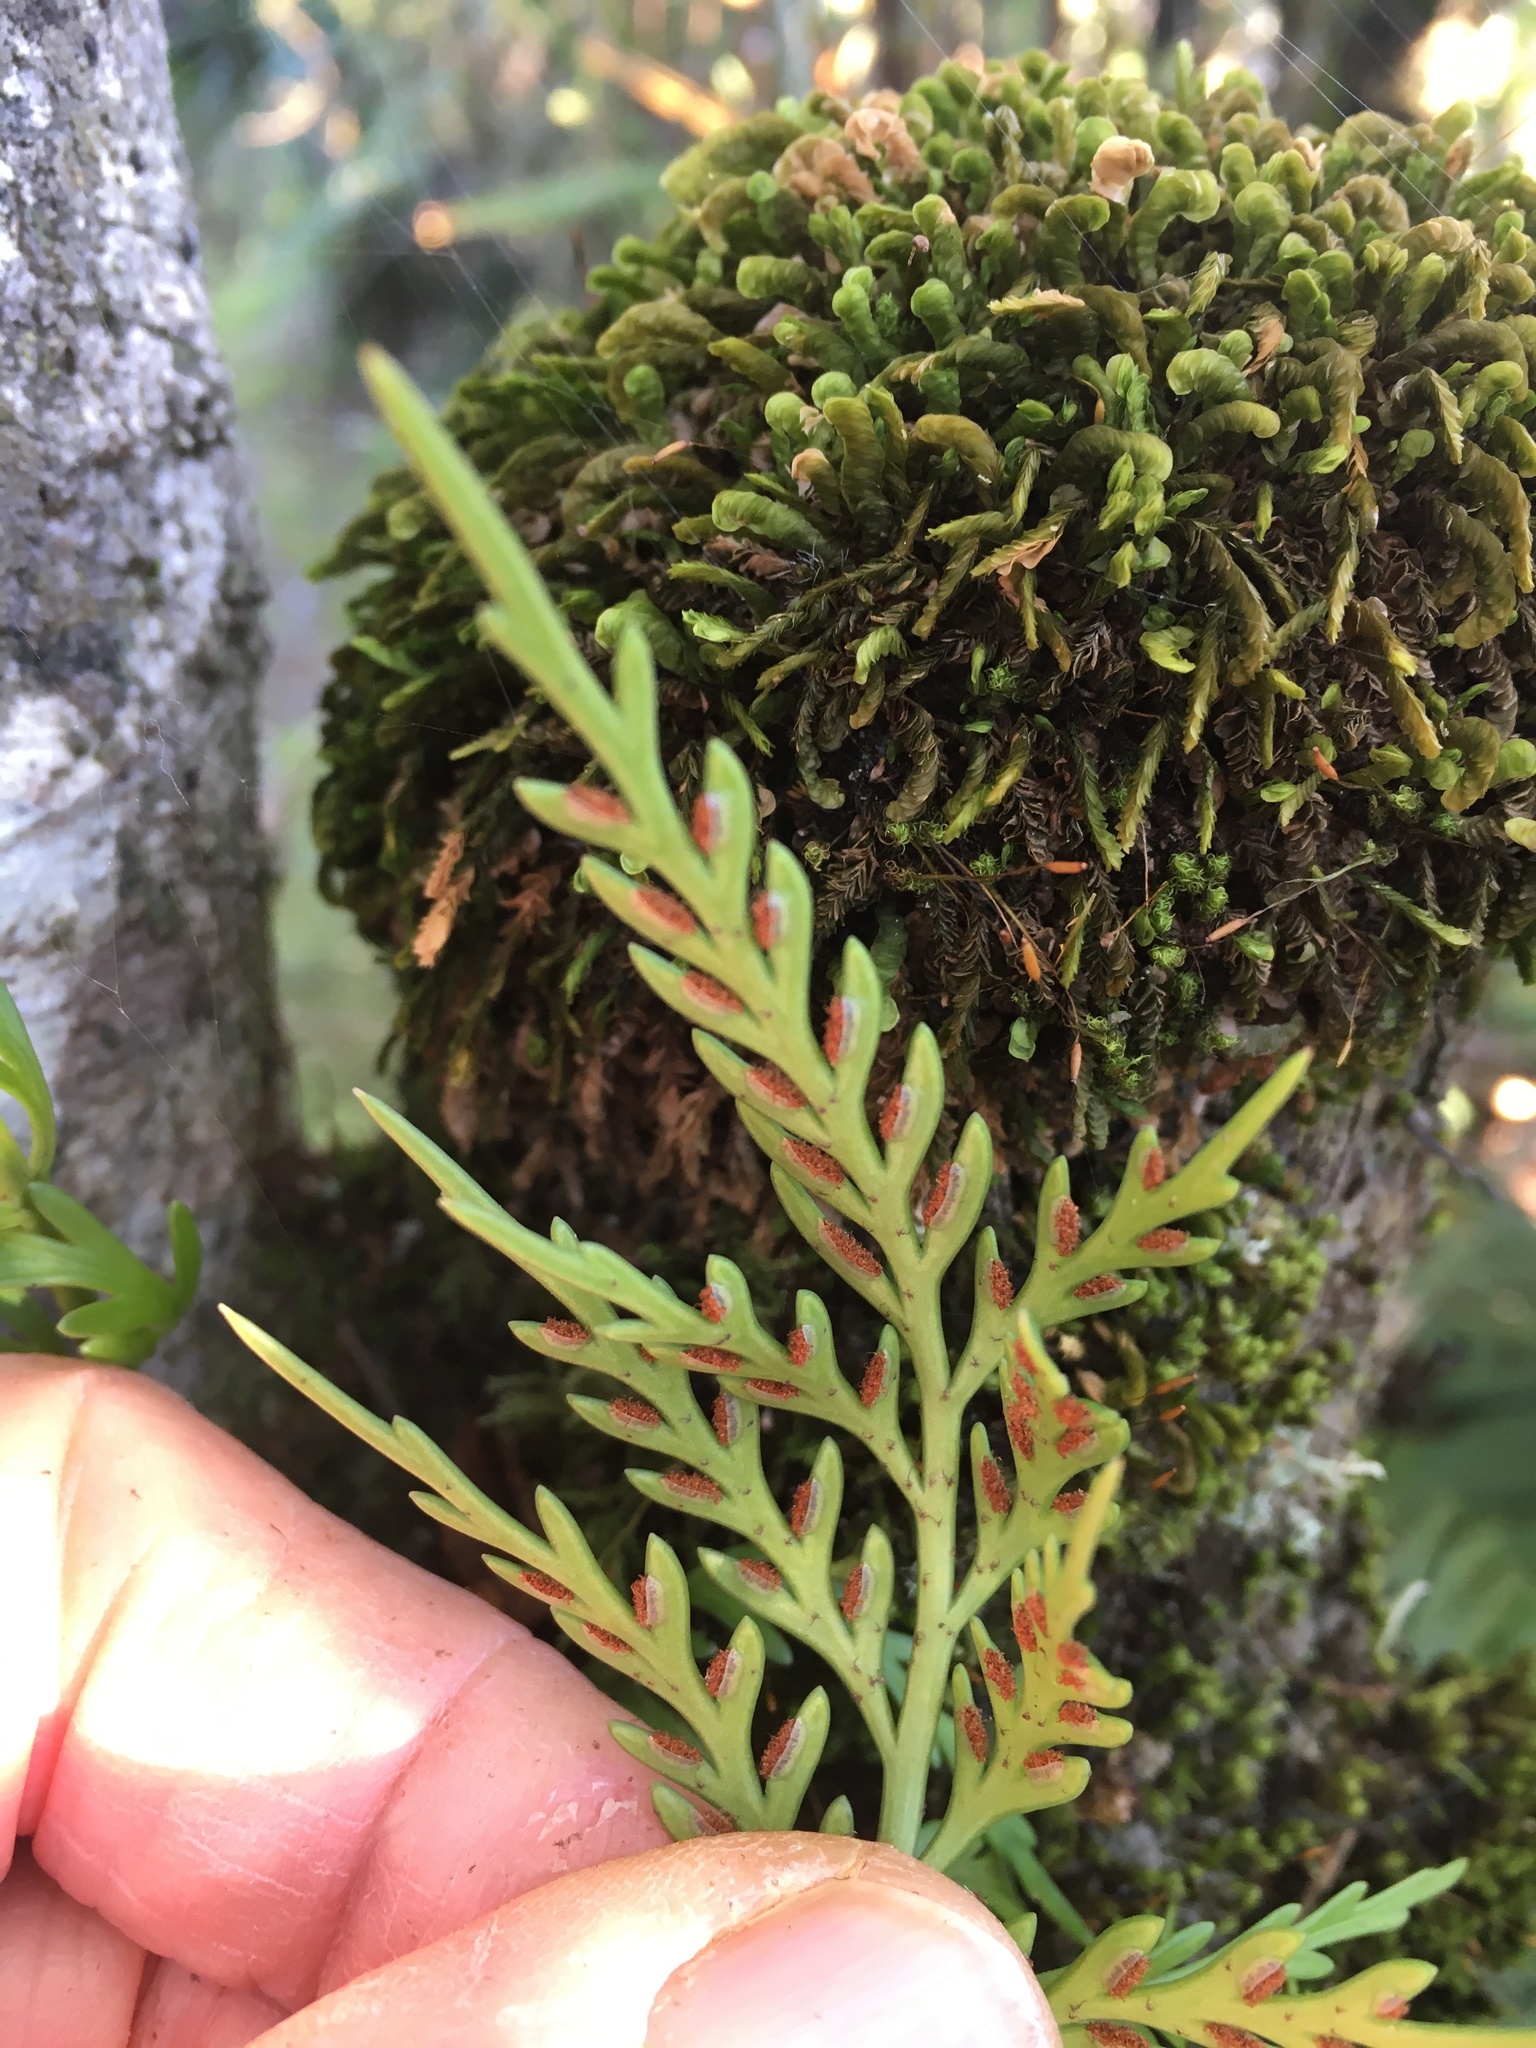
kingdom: Plantae
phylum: Tracheophyta
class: Polypodiopsida
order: Polypodiales
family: Aspleniaceae
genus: Asplenium
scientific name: Asplenium flaccidum
